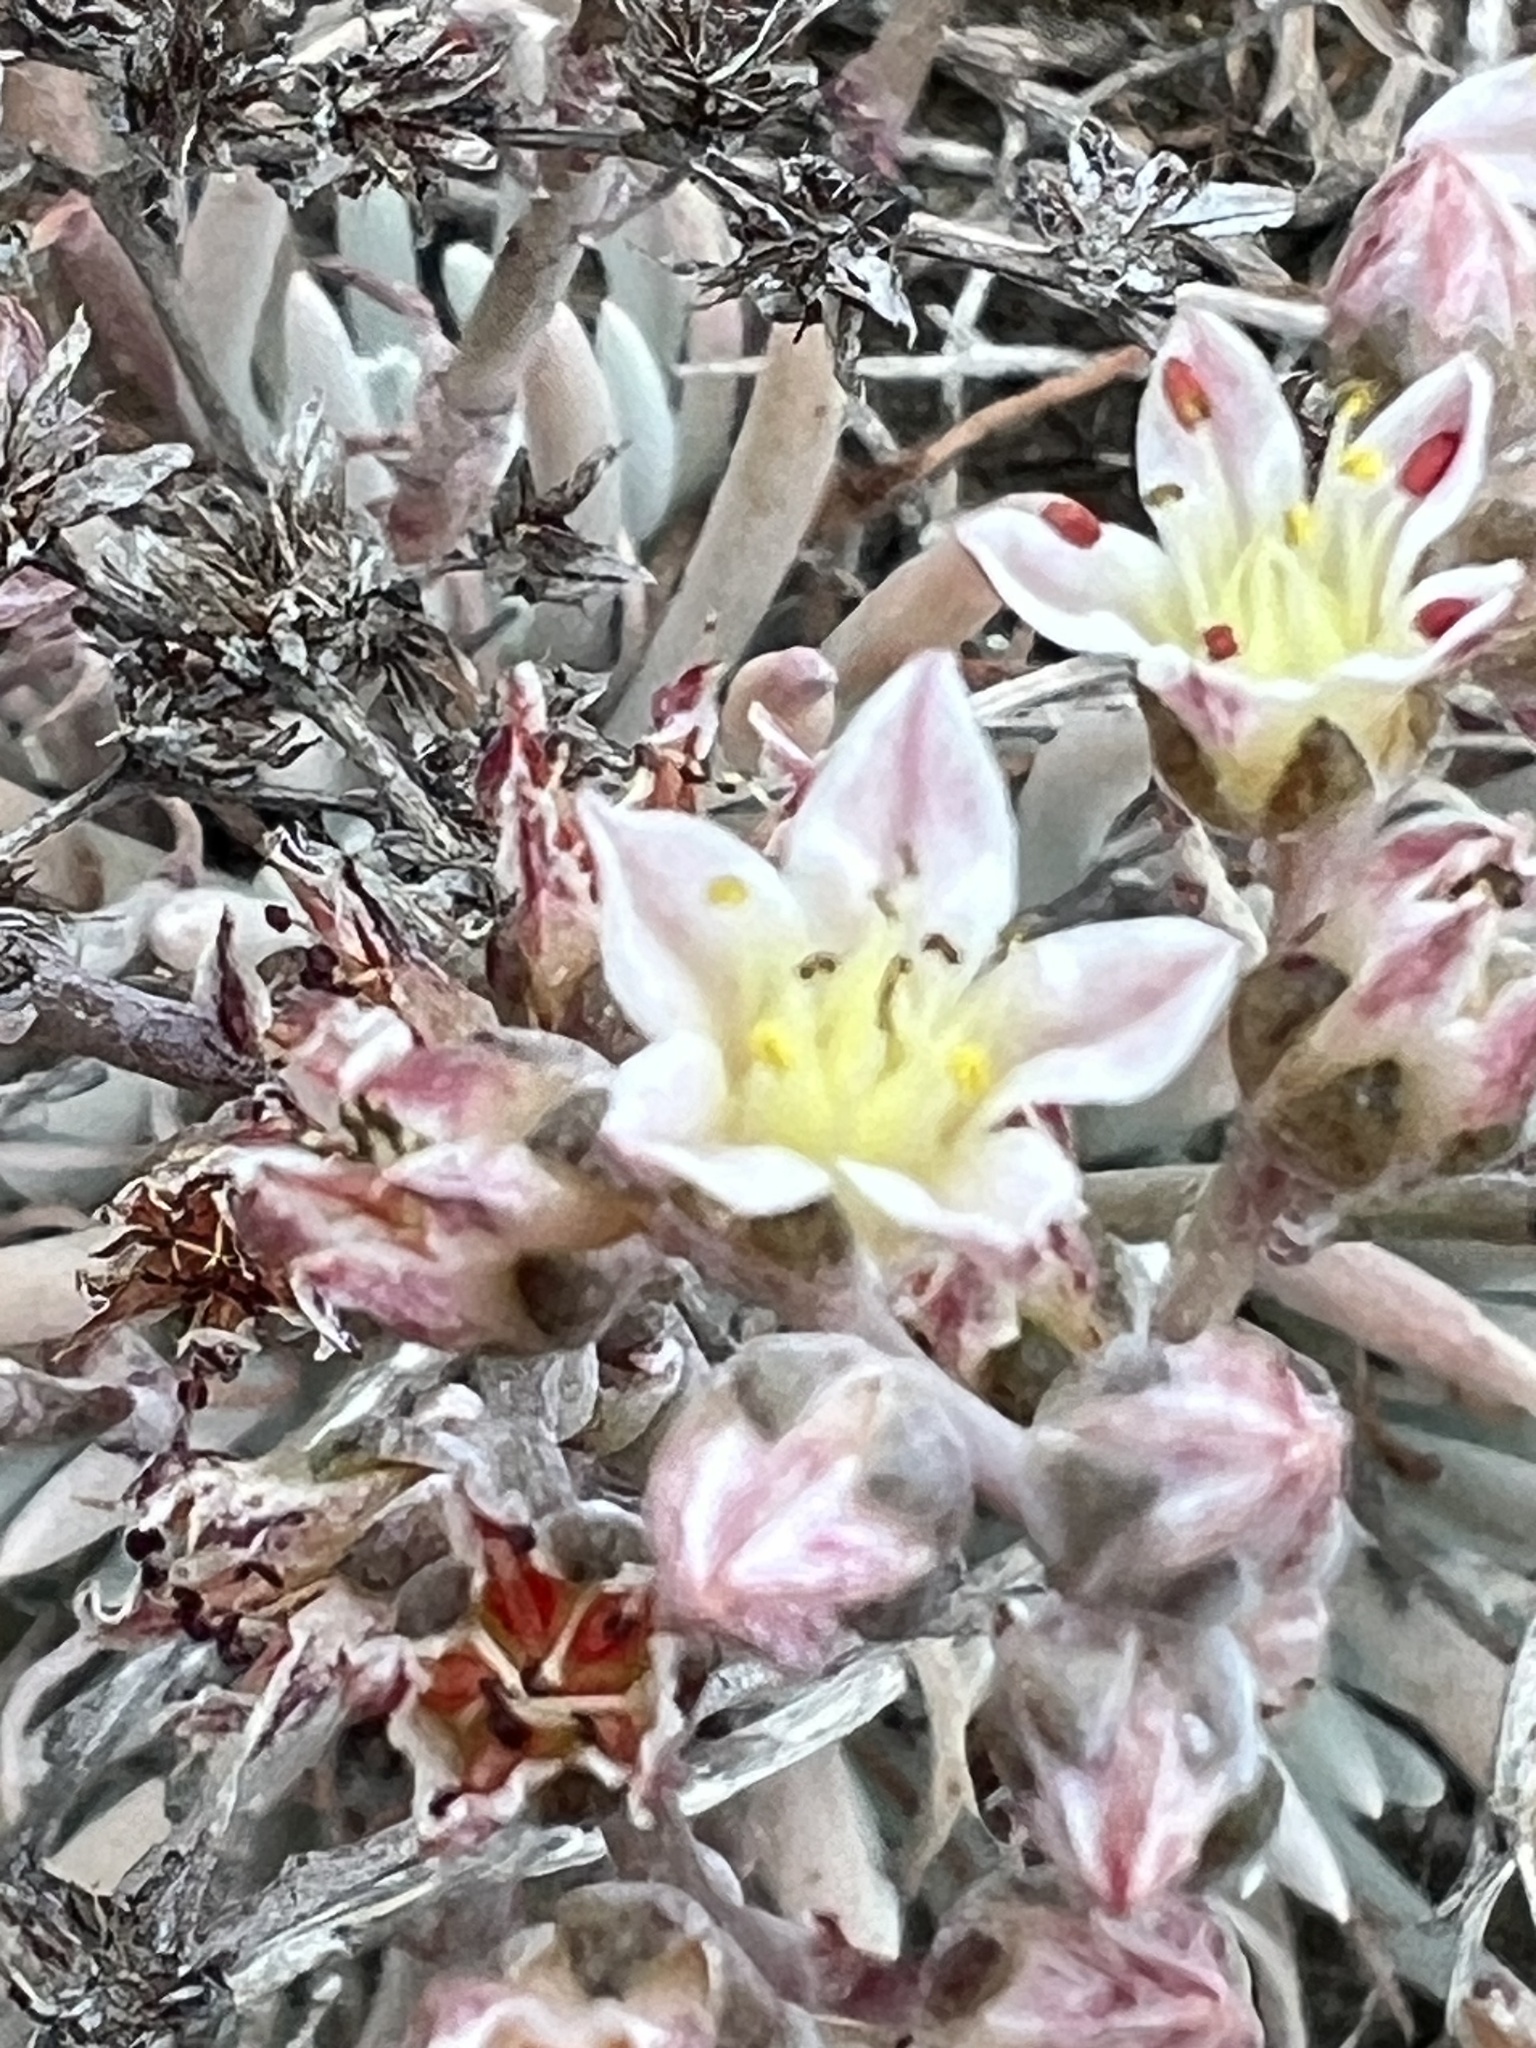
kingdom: Plantae
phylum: Tracheophyta
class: Magnoliopsida
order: Saxifragales
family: Crassulaceae
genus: Dudleya
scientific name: Dudleya attenuata
